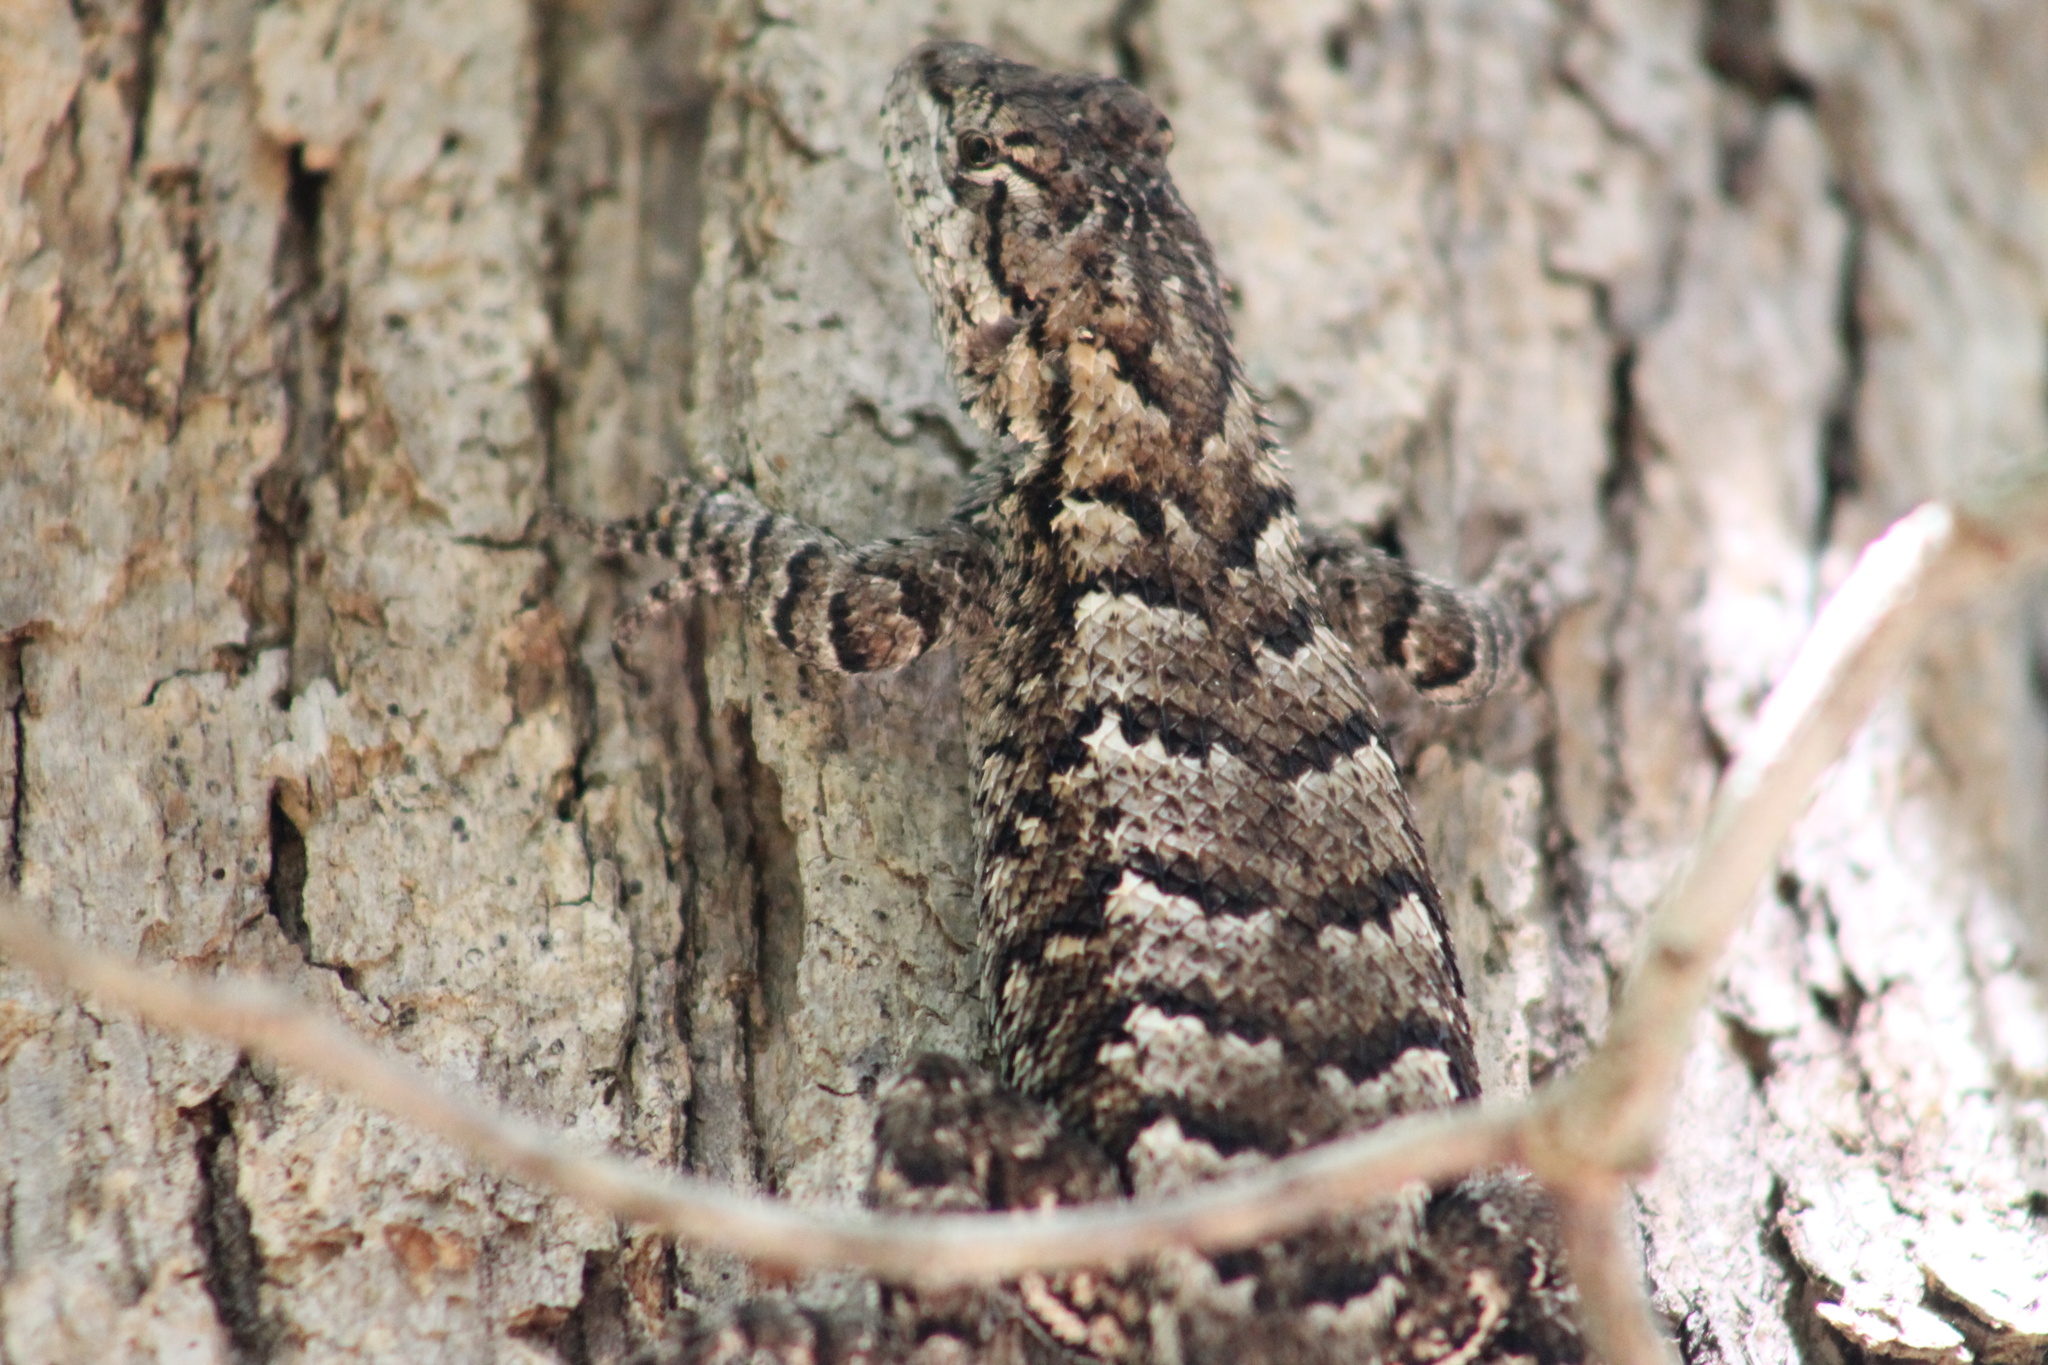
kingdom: Animalia
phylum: Chordata
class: Squamata
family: Phrynosomatidae
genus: Sceloporus
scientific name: Sceloporus undulatus
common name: Eastern fence lizard
